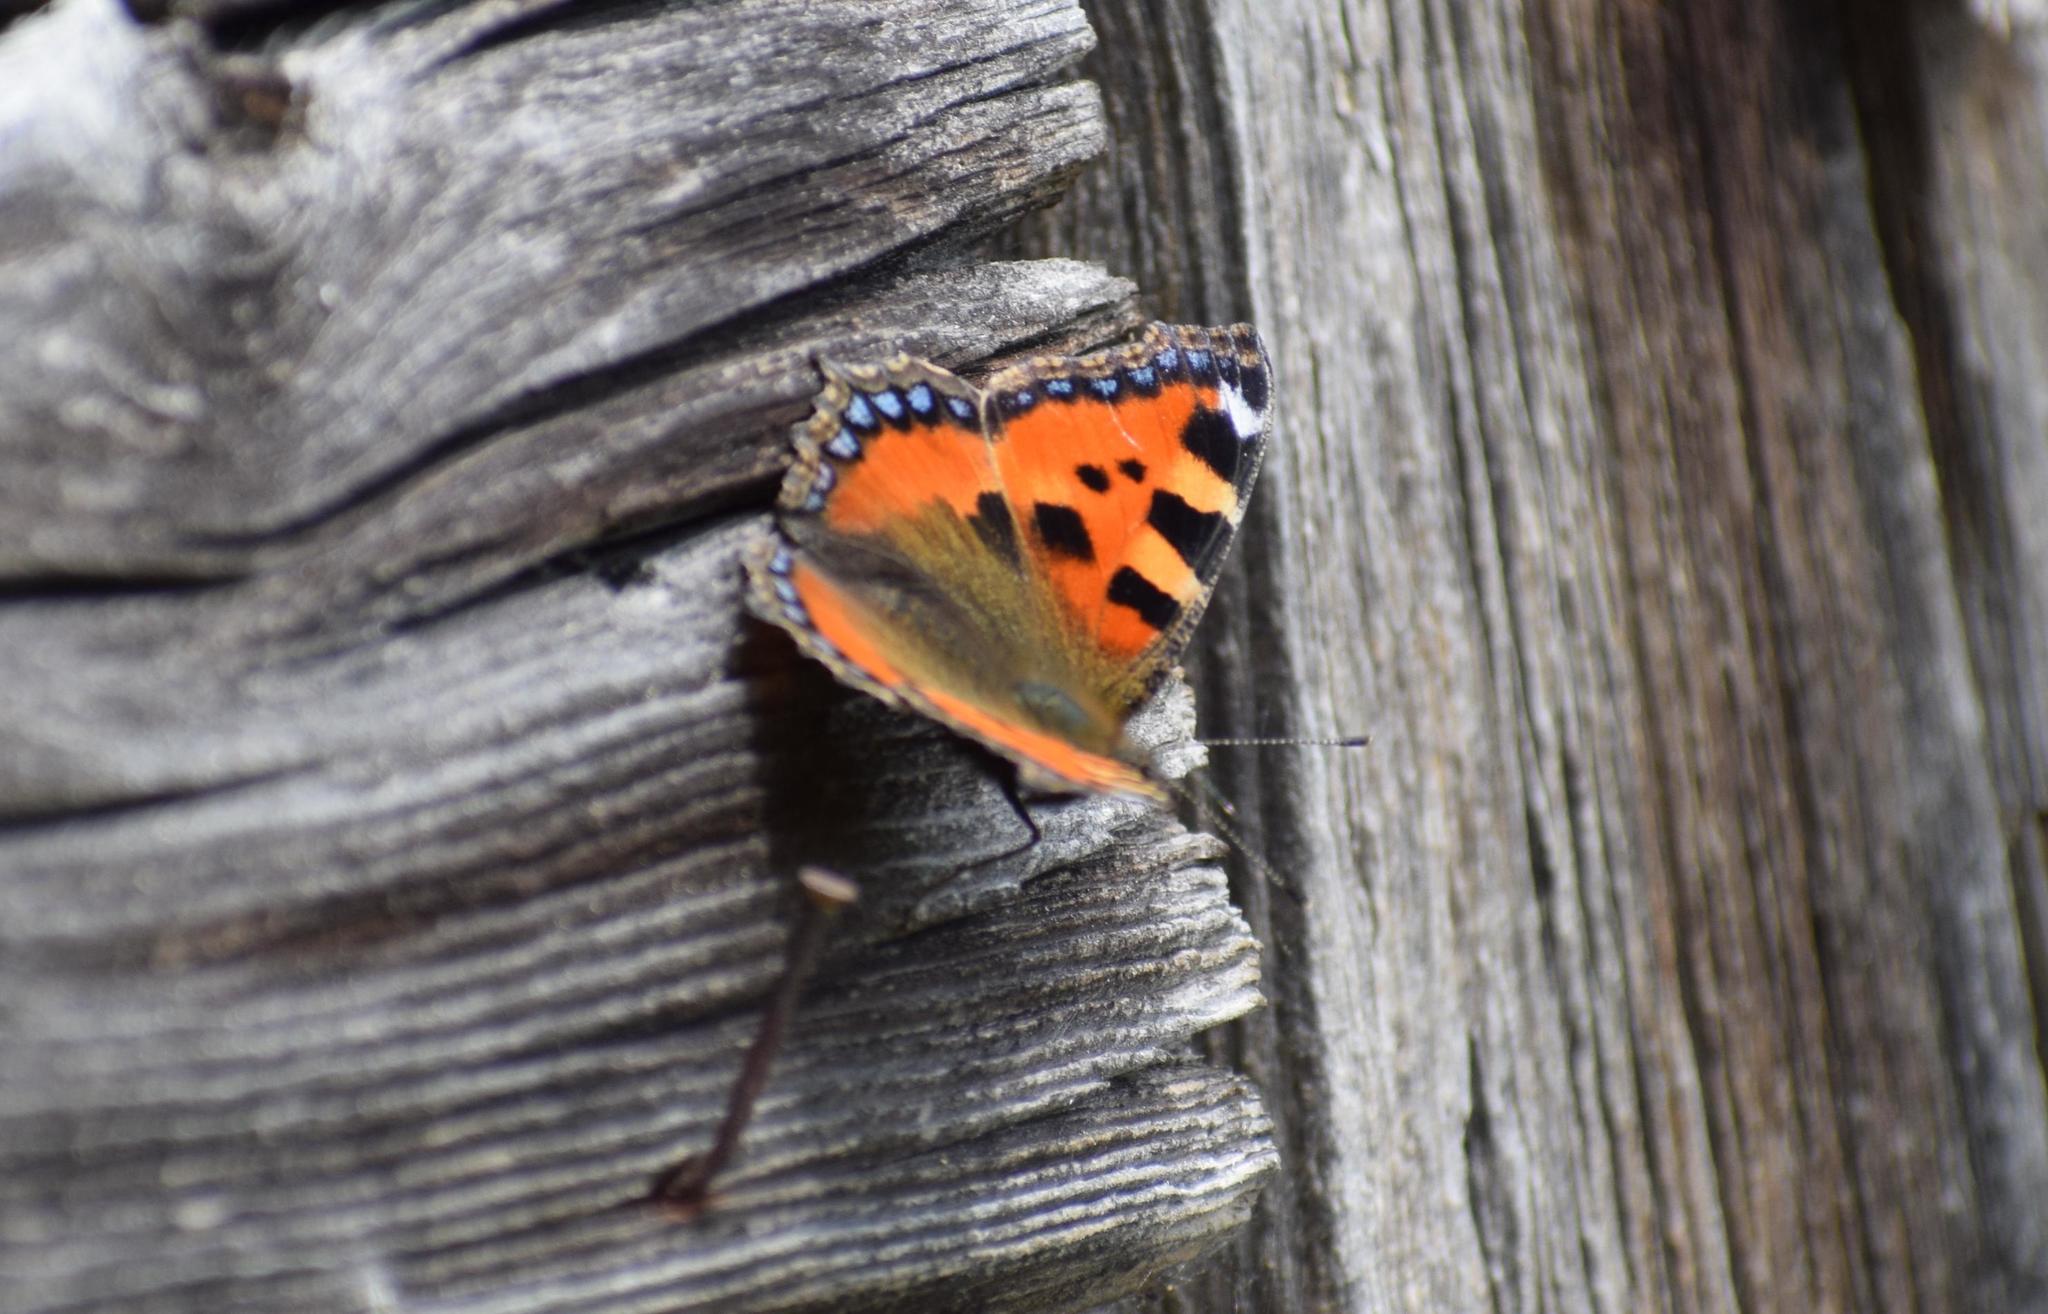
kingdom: Animalia
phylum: Arthropoda
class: Insecta
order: Lepidoptera
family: Nymphalidae
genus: Aglais
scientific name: Aglais urticae
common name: Small tortoiseshell
